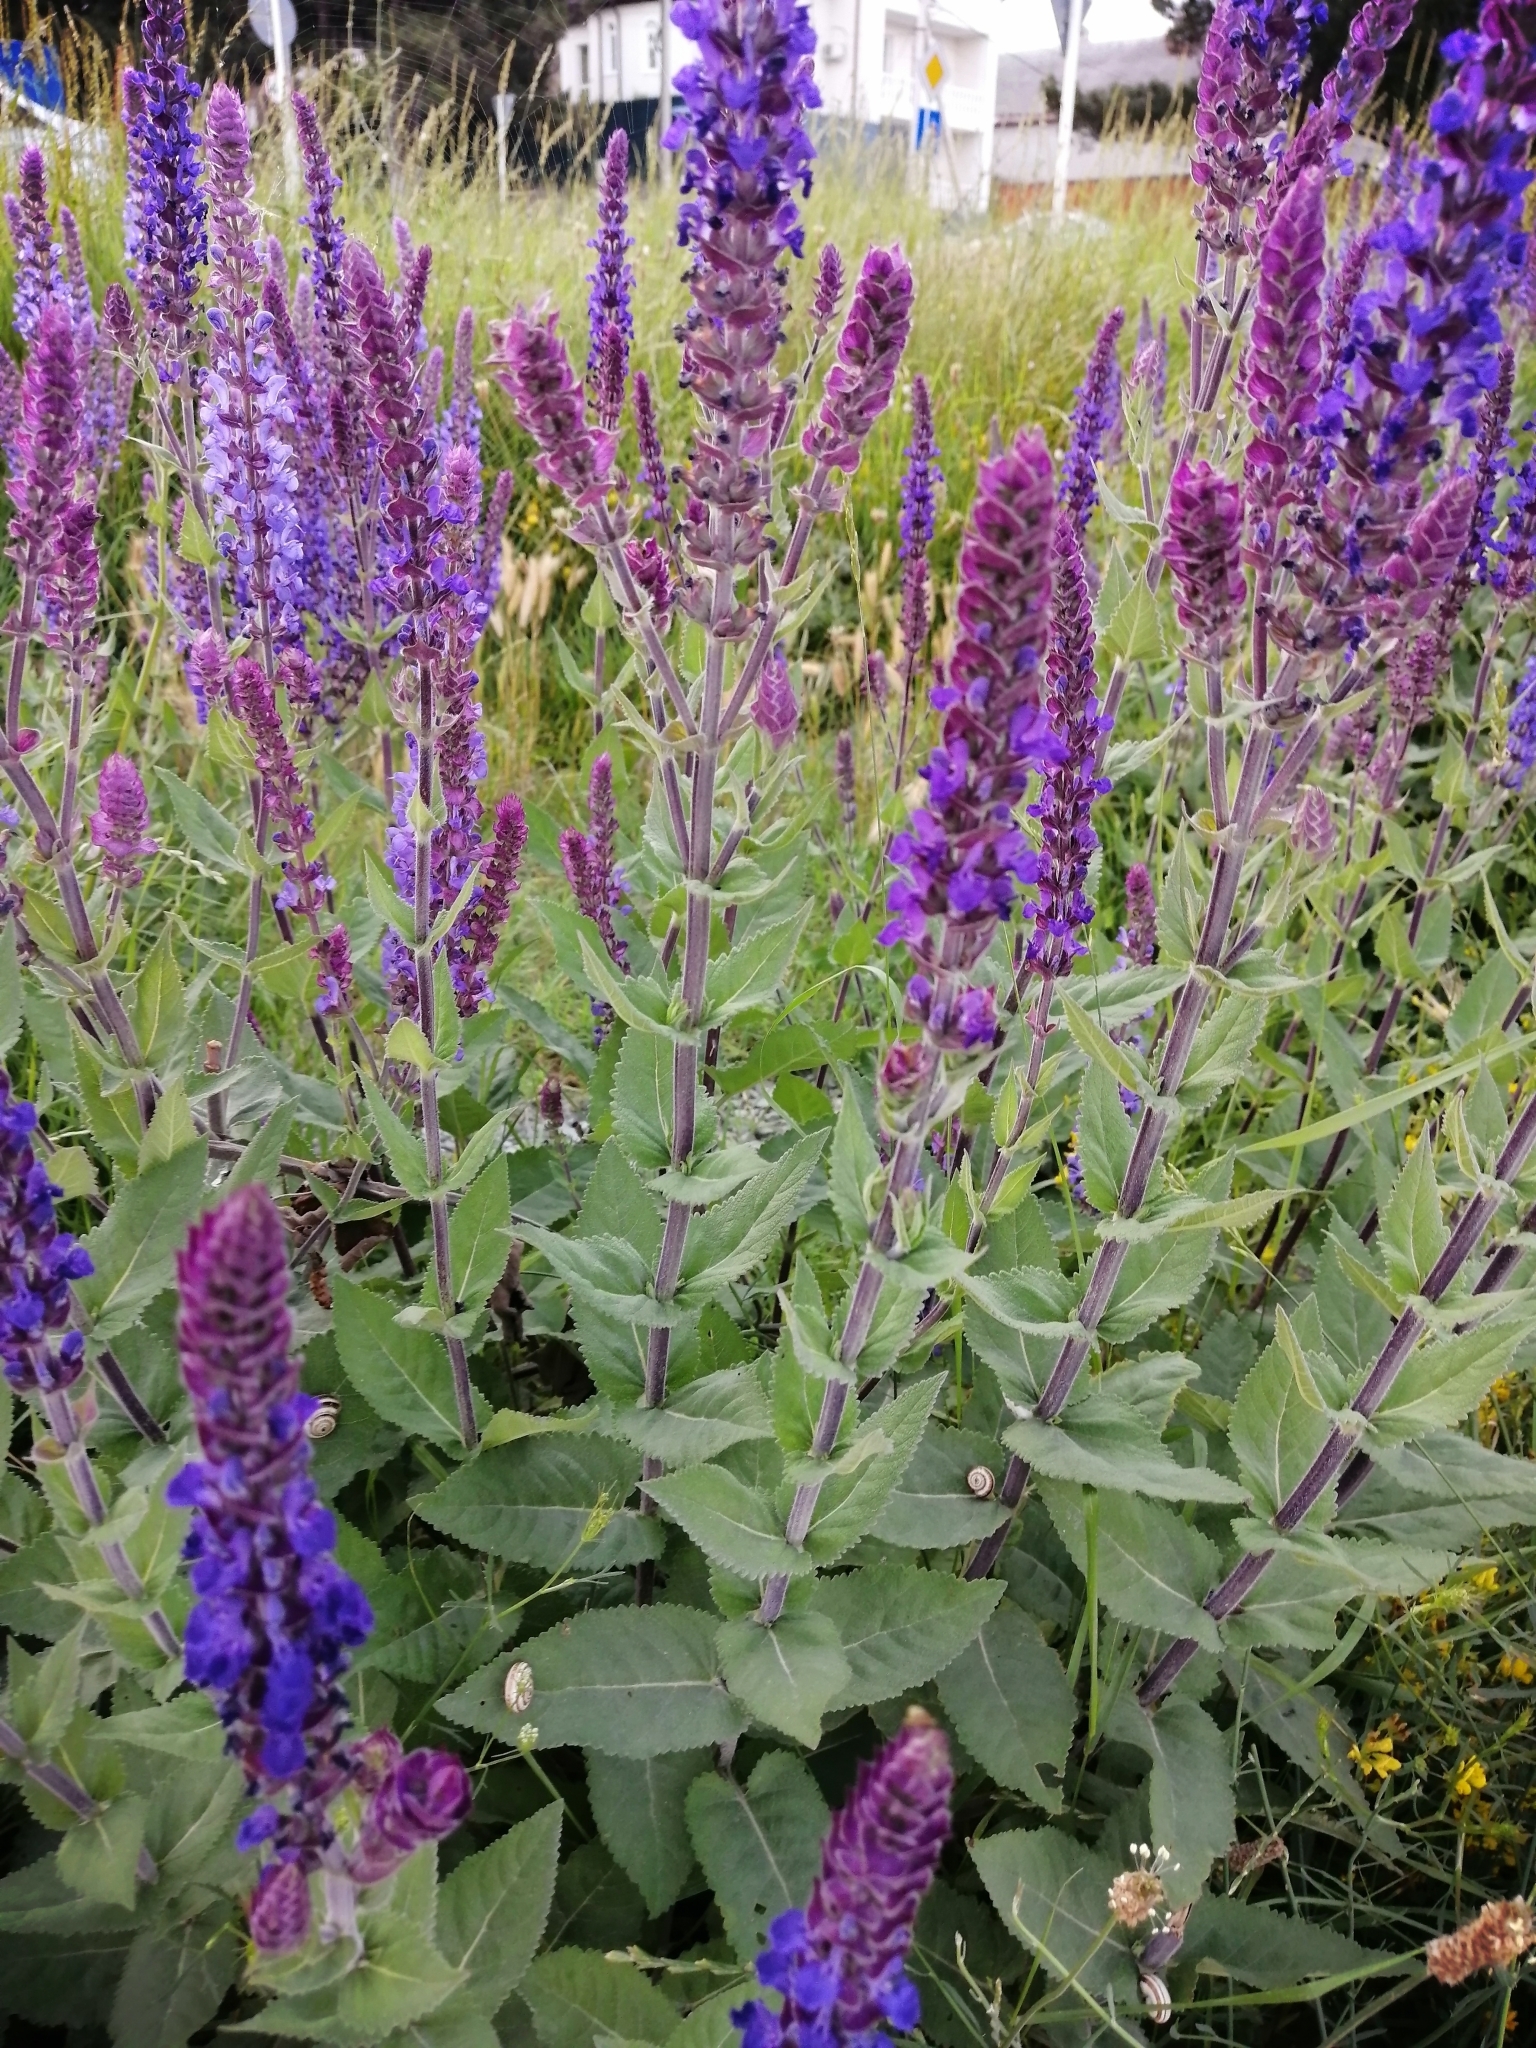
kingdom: Plantae
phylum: Tracheophyta
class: Magnoliopsida
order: Lamiales
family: Lamiaceae
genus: Salvia
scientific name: Salvia nemorosa
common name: Balkan clary
